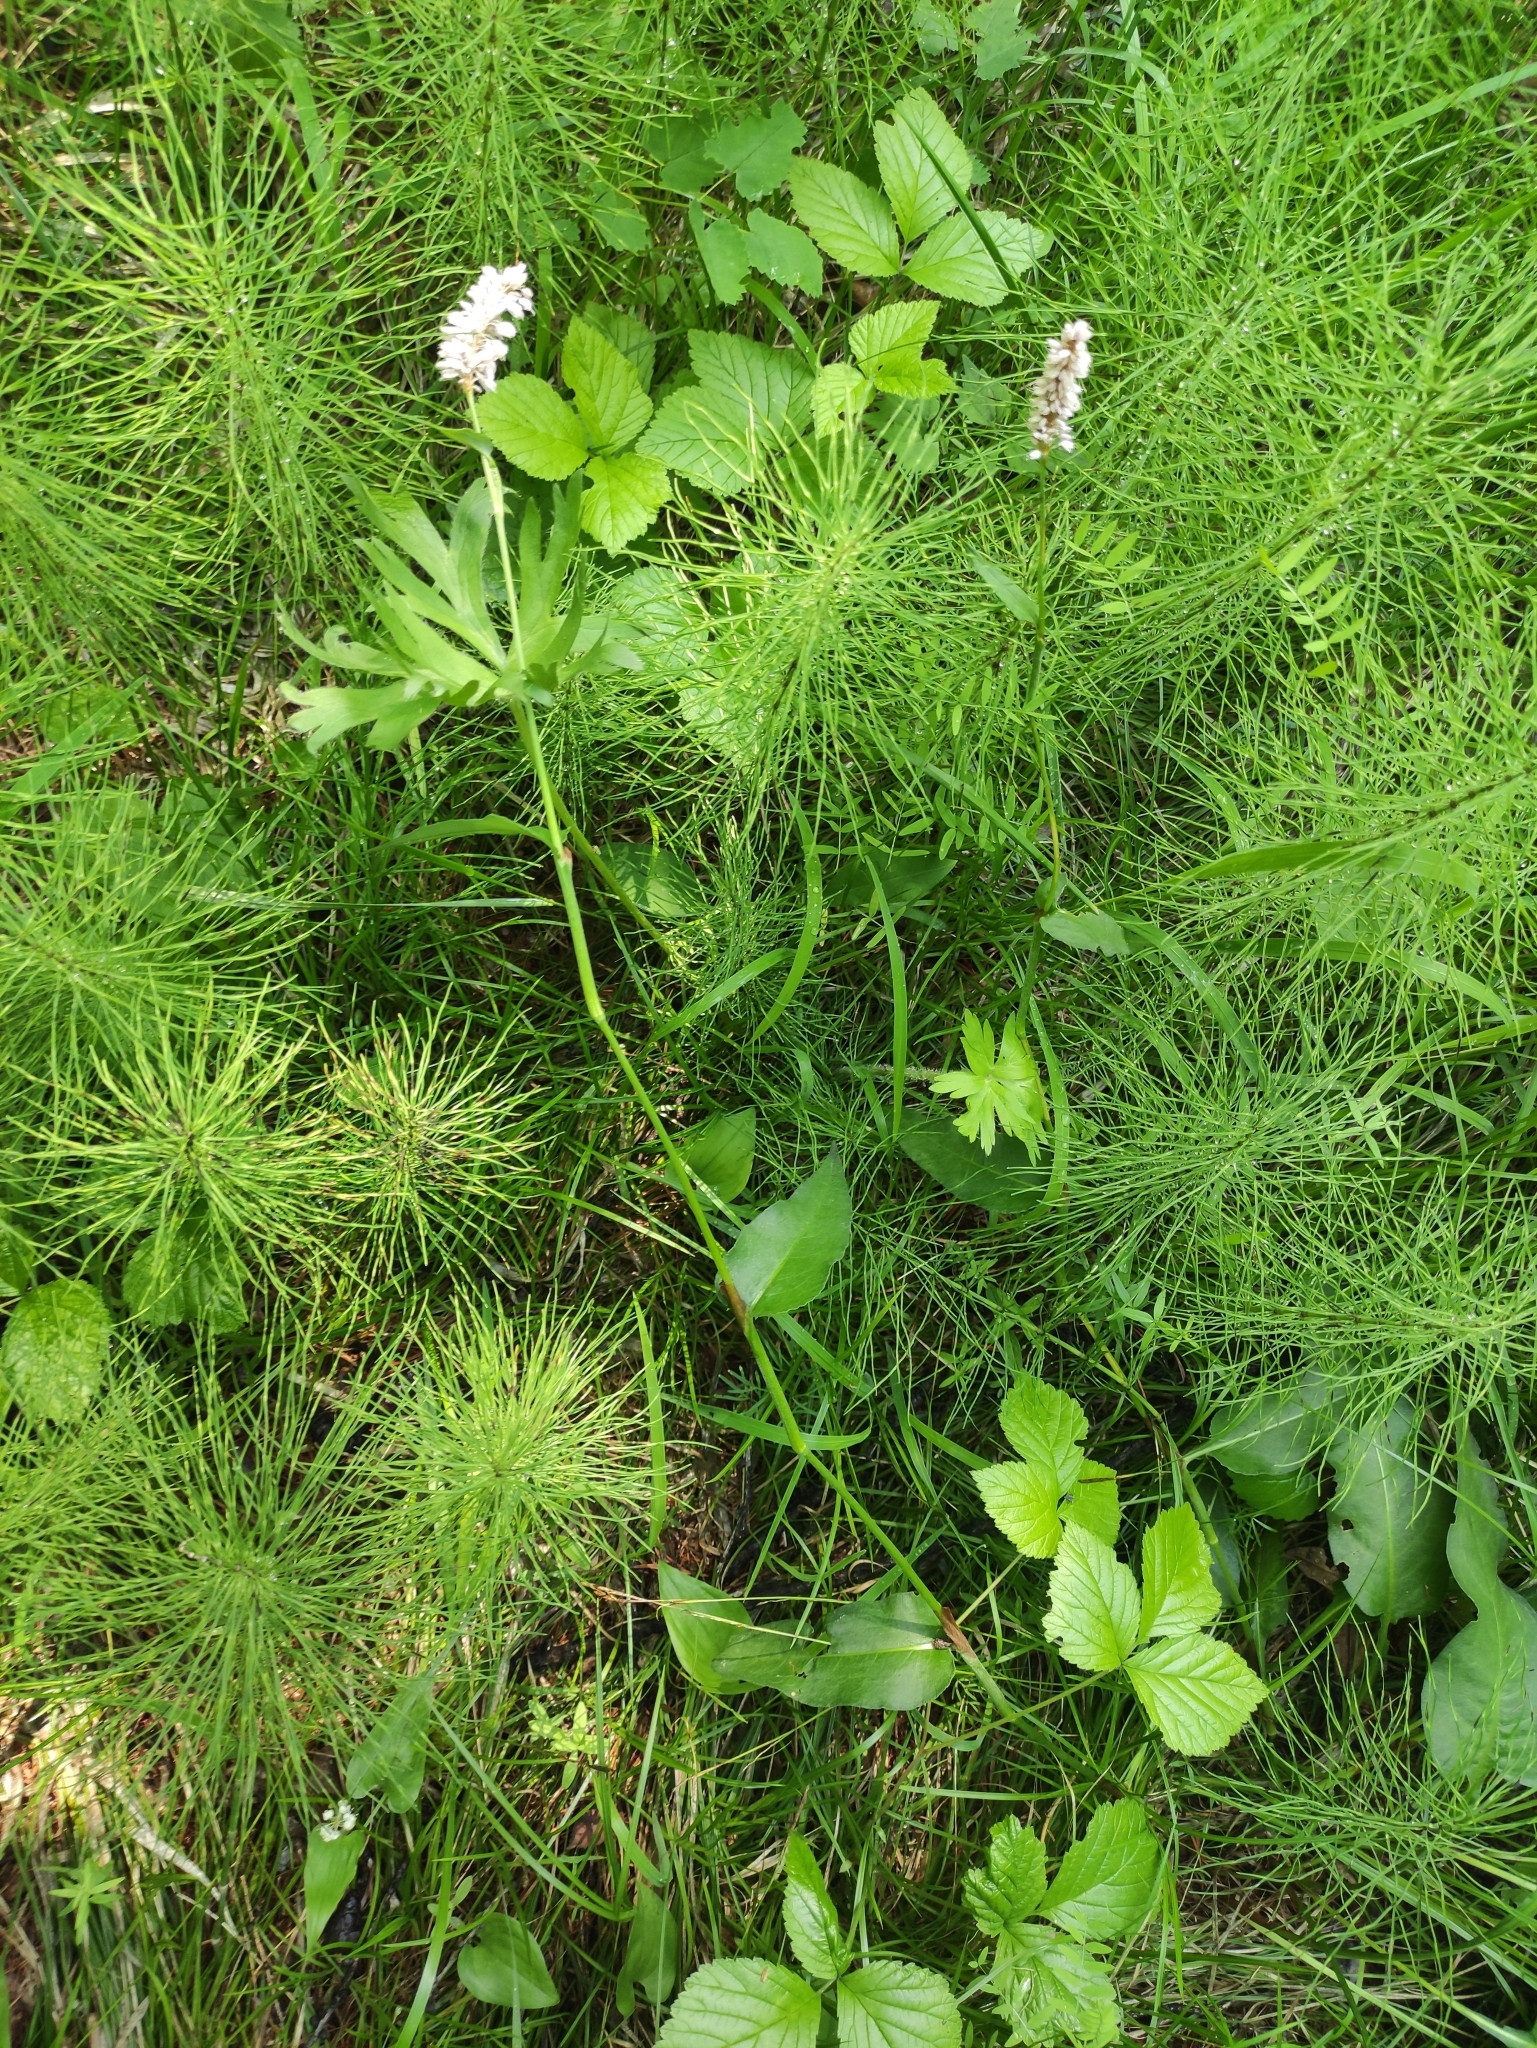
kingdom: Plantae
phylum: Tracheophyta
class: Magnoliopsida
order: Caryophyllales
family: Polygonaceae
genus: Bistorta
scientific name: Bistorta officinalis
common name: Common bistort
